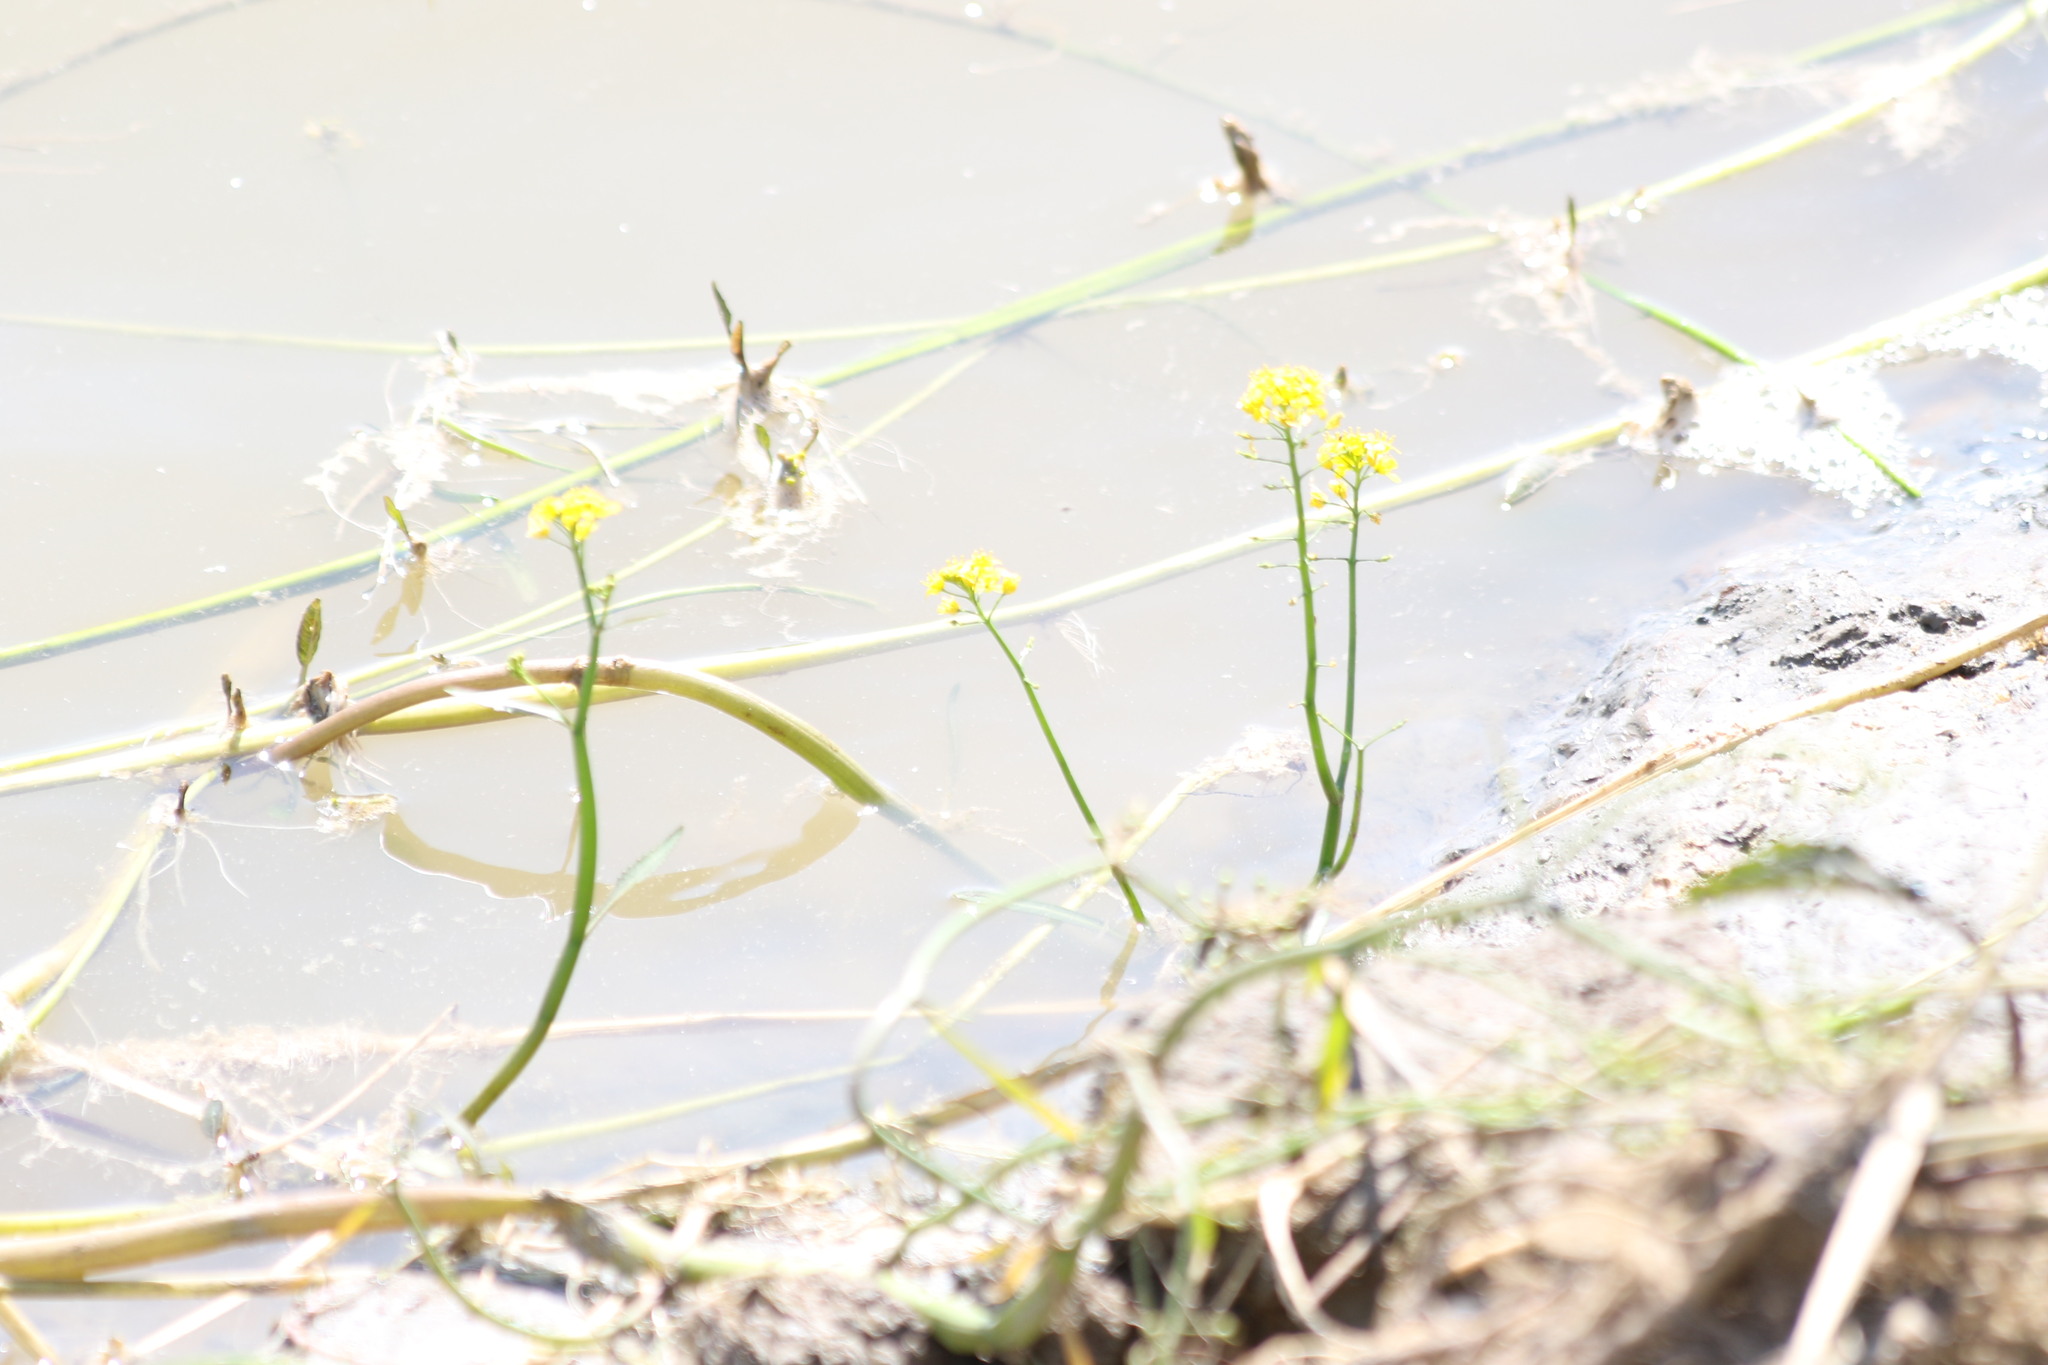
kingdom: Plantae
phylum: Tracheophyta
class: Magnoliopsida
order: Brassicales
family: Brassicaceae
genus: Rorippa
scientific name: Rorippa amphibia
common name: Great yellow-cress
